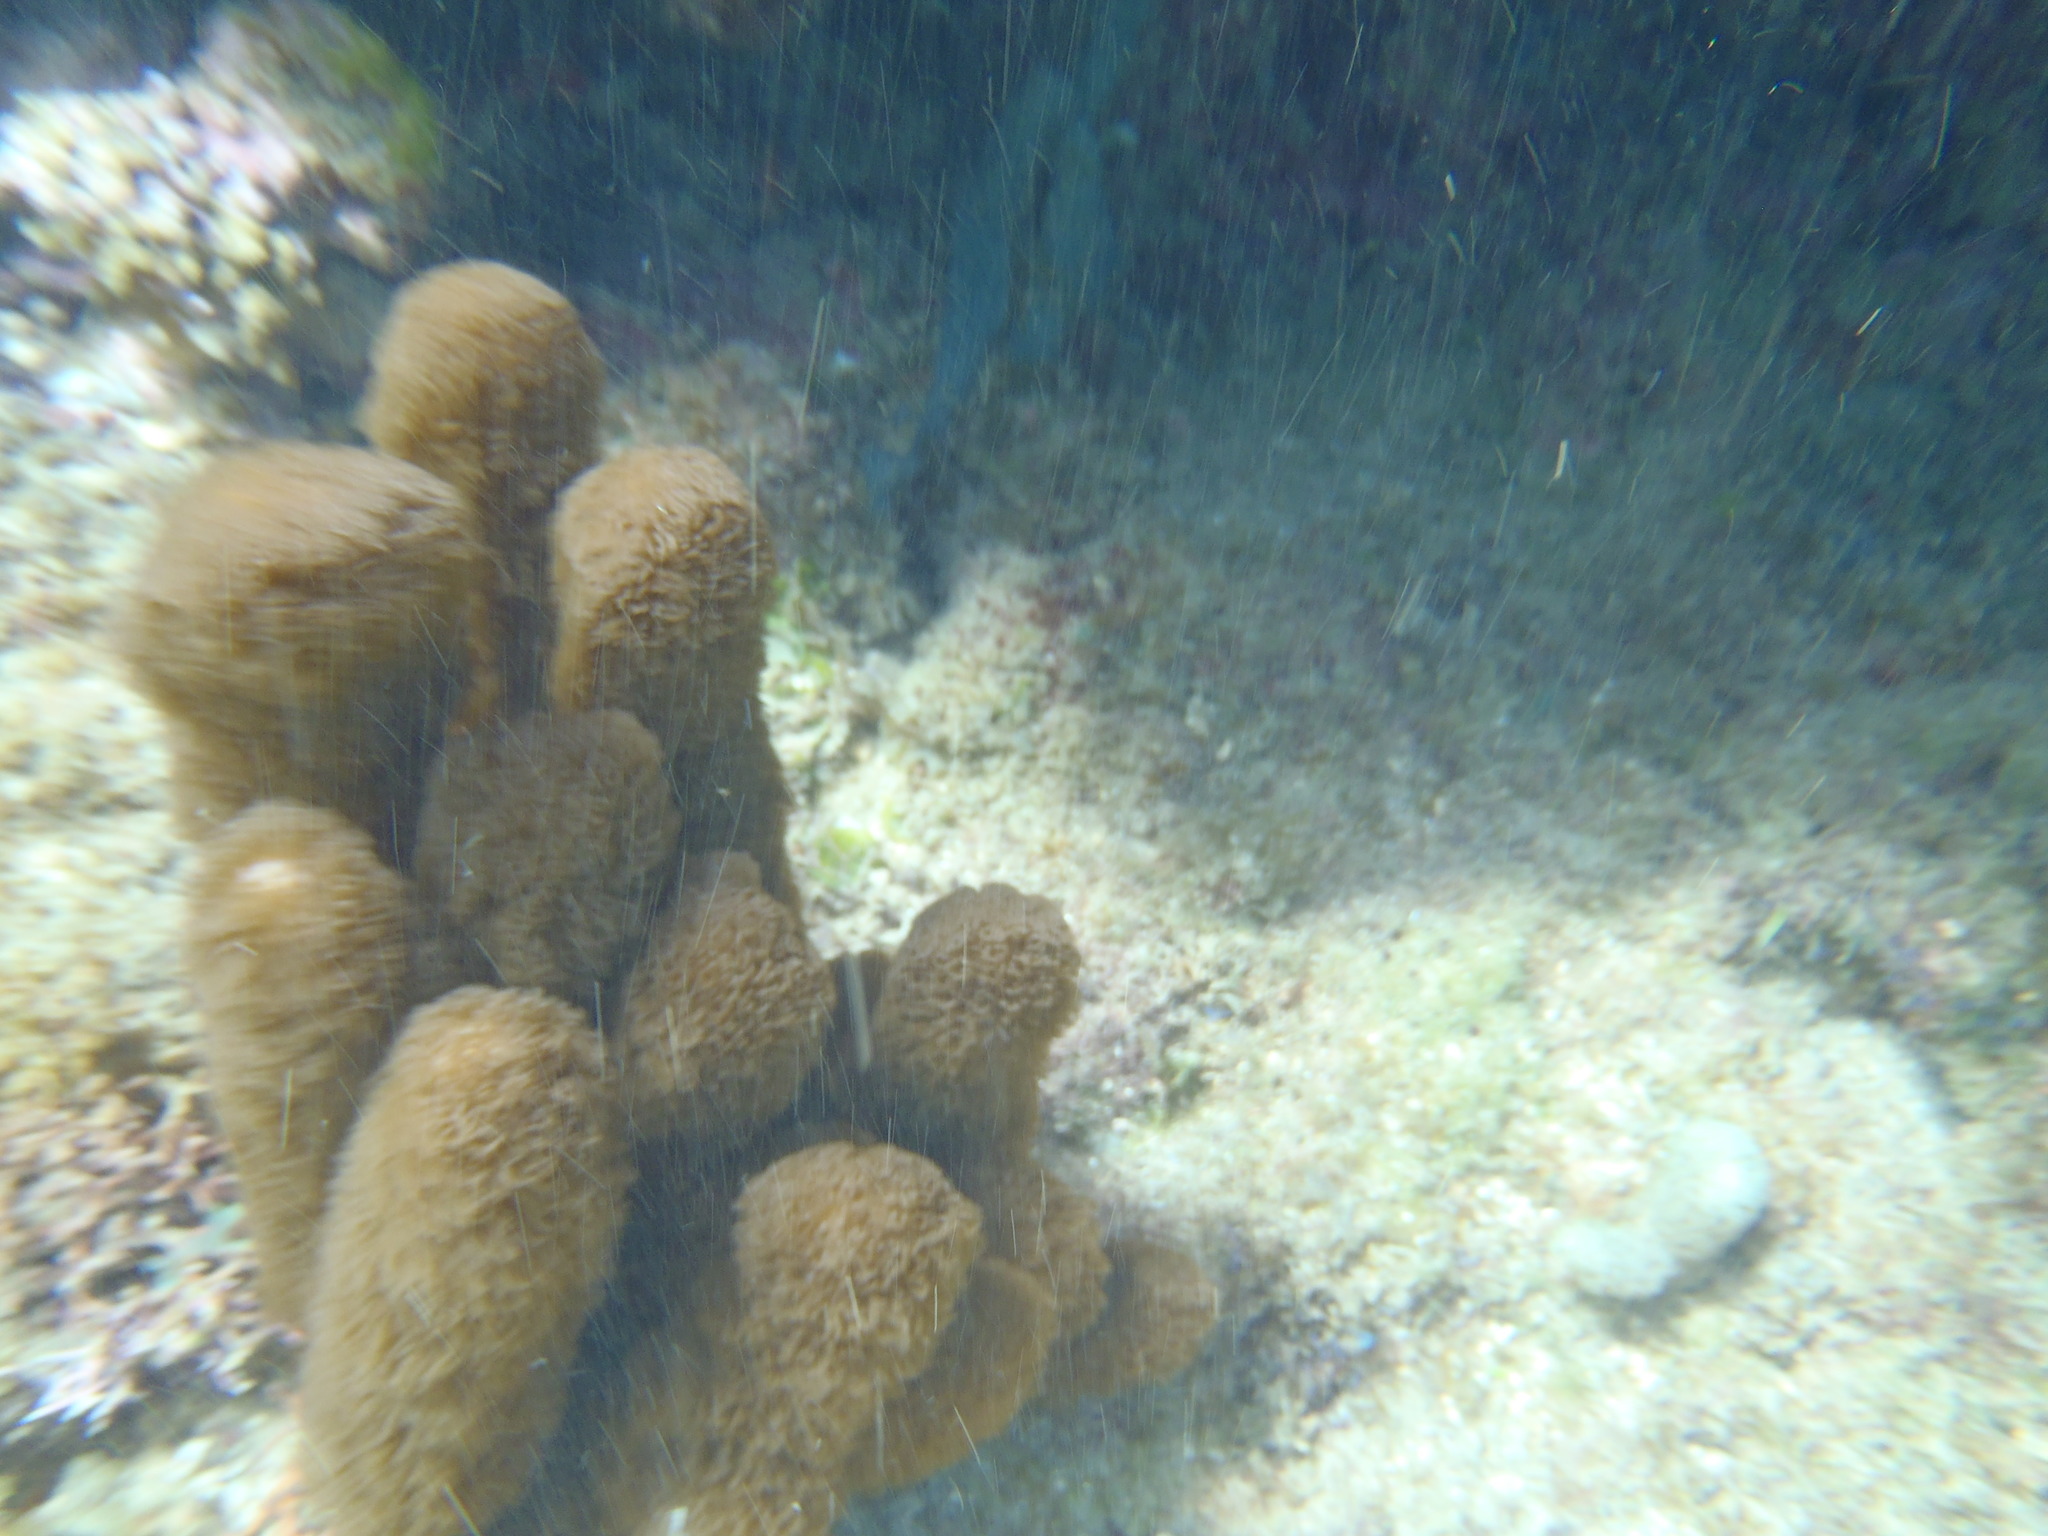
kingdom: Animalia
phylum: Cnidaria
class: Anthozoa
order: Scleralcyonacea
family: Briareidae
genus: Briareum
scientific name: Briareum asbestinum
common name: Corky sea finger
